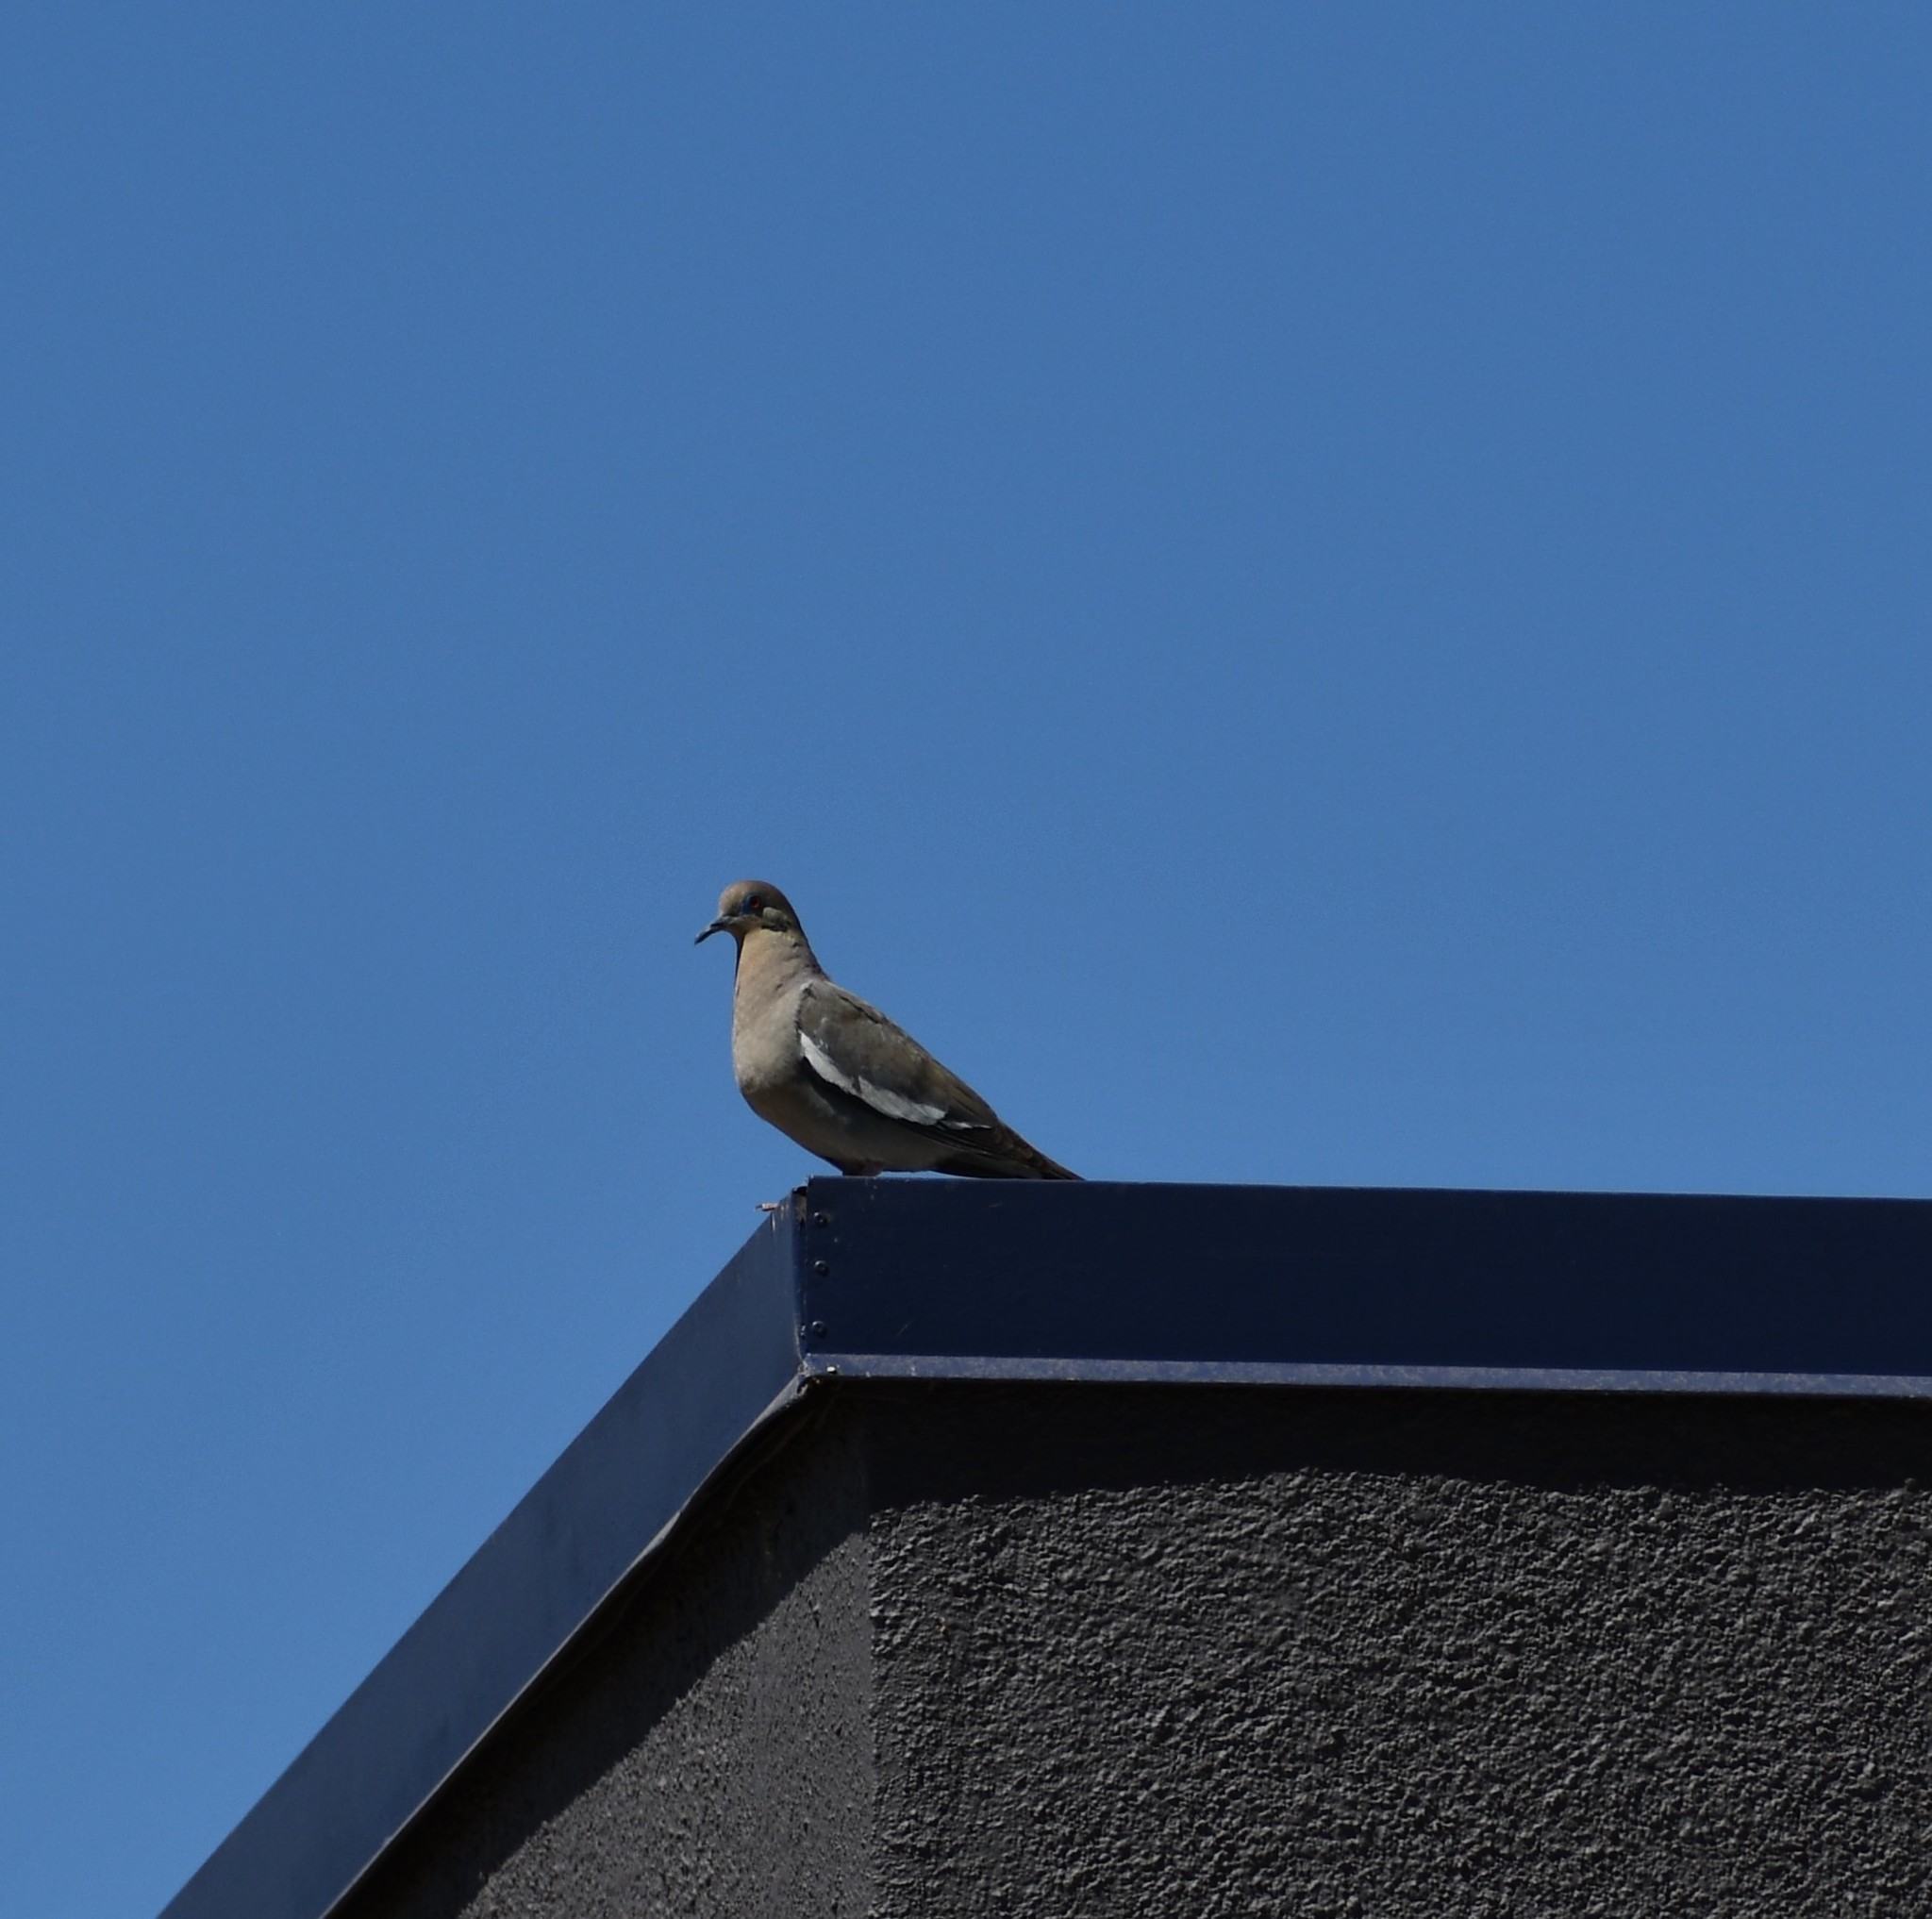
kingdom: Animalia
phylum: Chordata
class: Aves
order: Columbiformes
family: Columbidae
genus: Zenaida
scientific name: Zenaida asiatica
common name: White-winged dove
